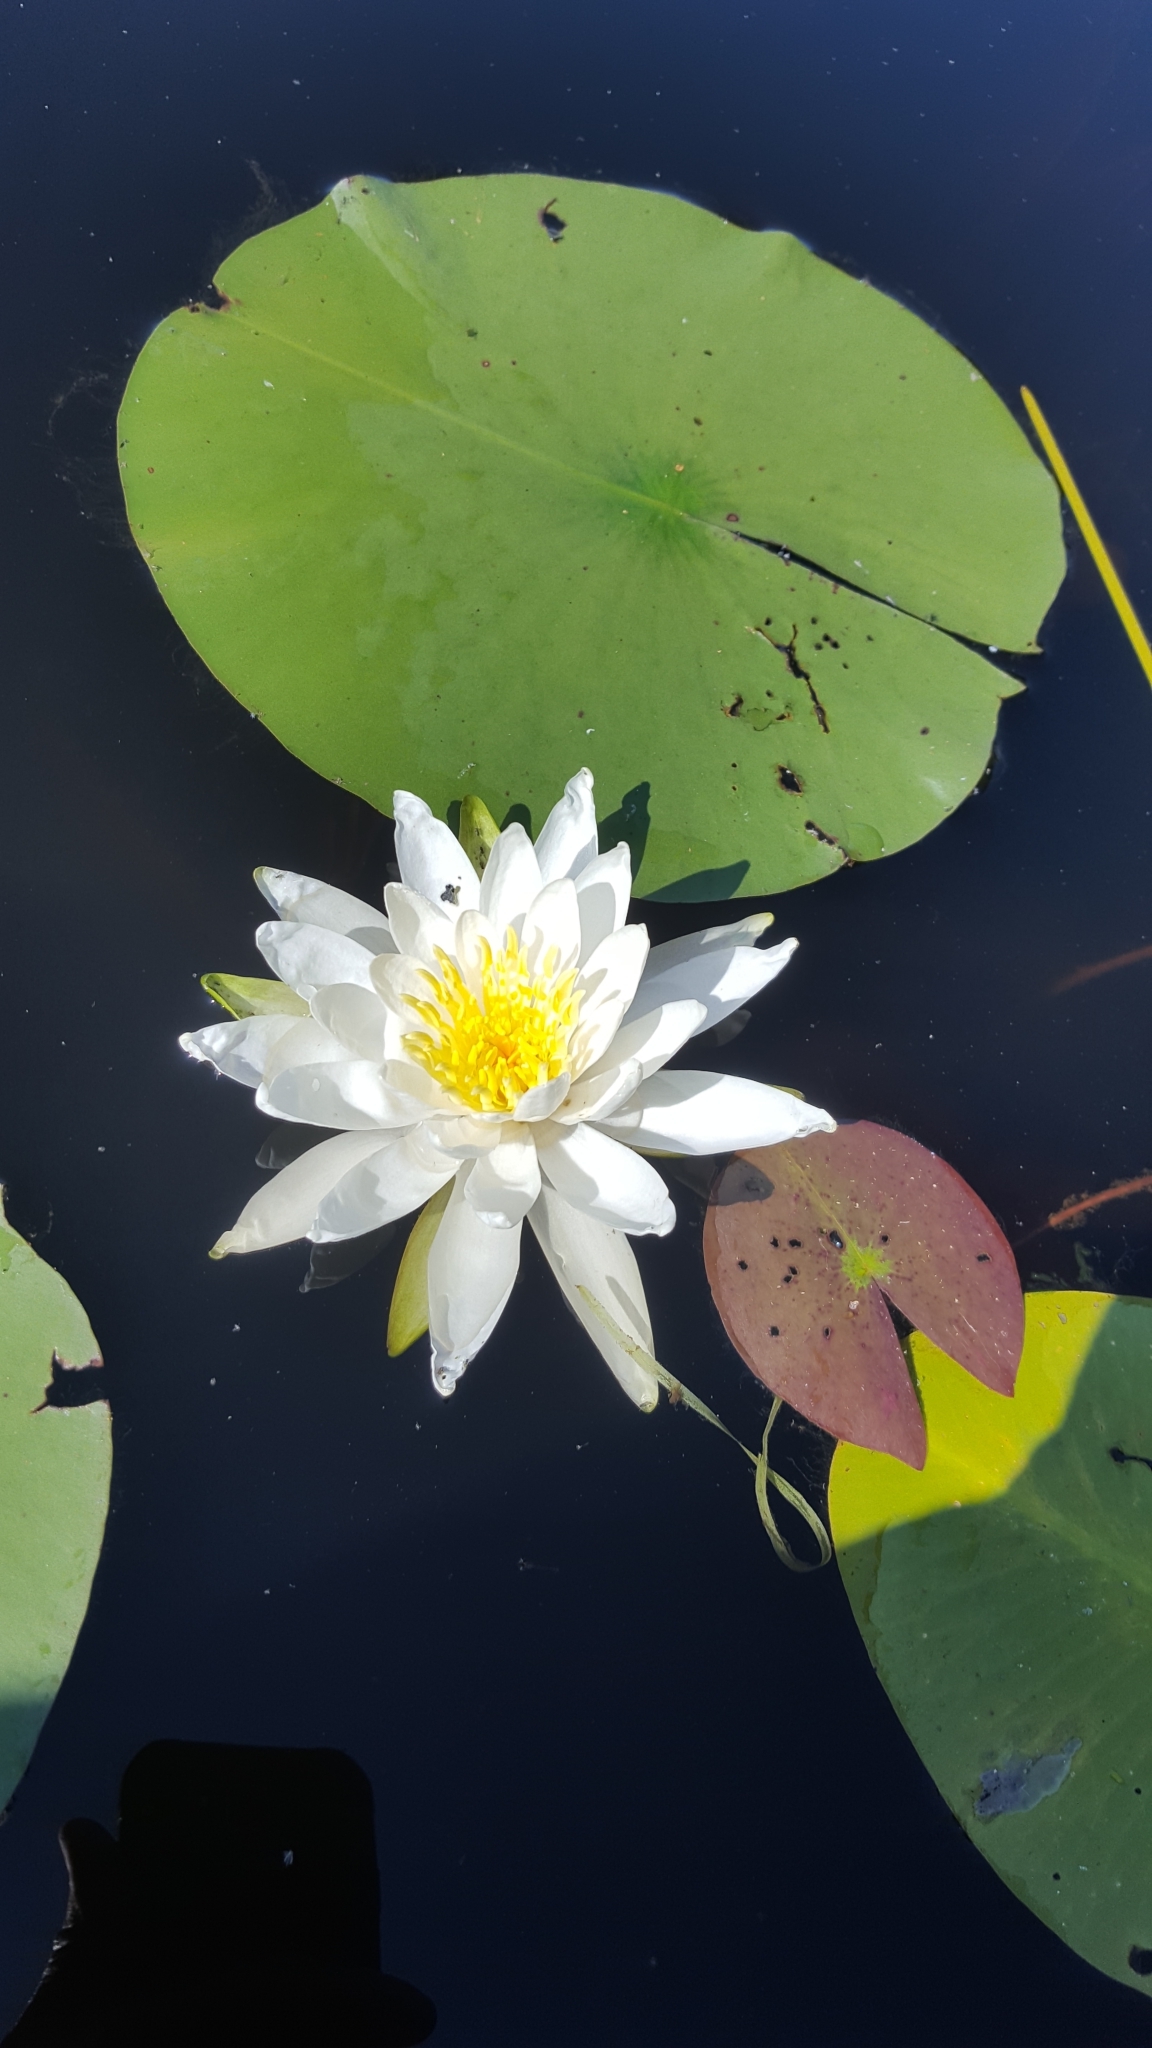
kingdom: Plantae
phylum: Tracheophyta
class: Magnoliopsida
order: Nymphaeales
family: Nymphaeaceae
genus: Nymphaea
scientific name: Nymphaea odorata
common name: Fragrant water-lily
